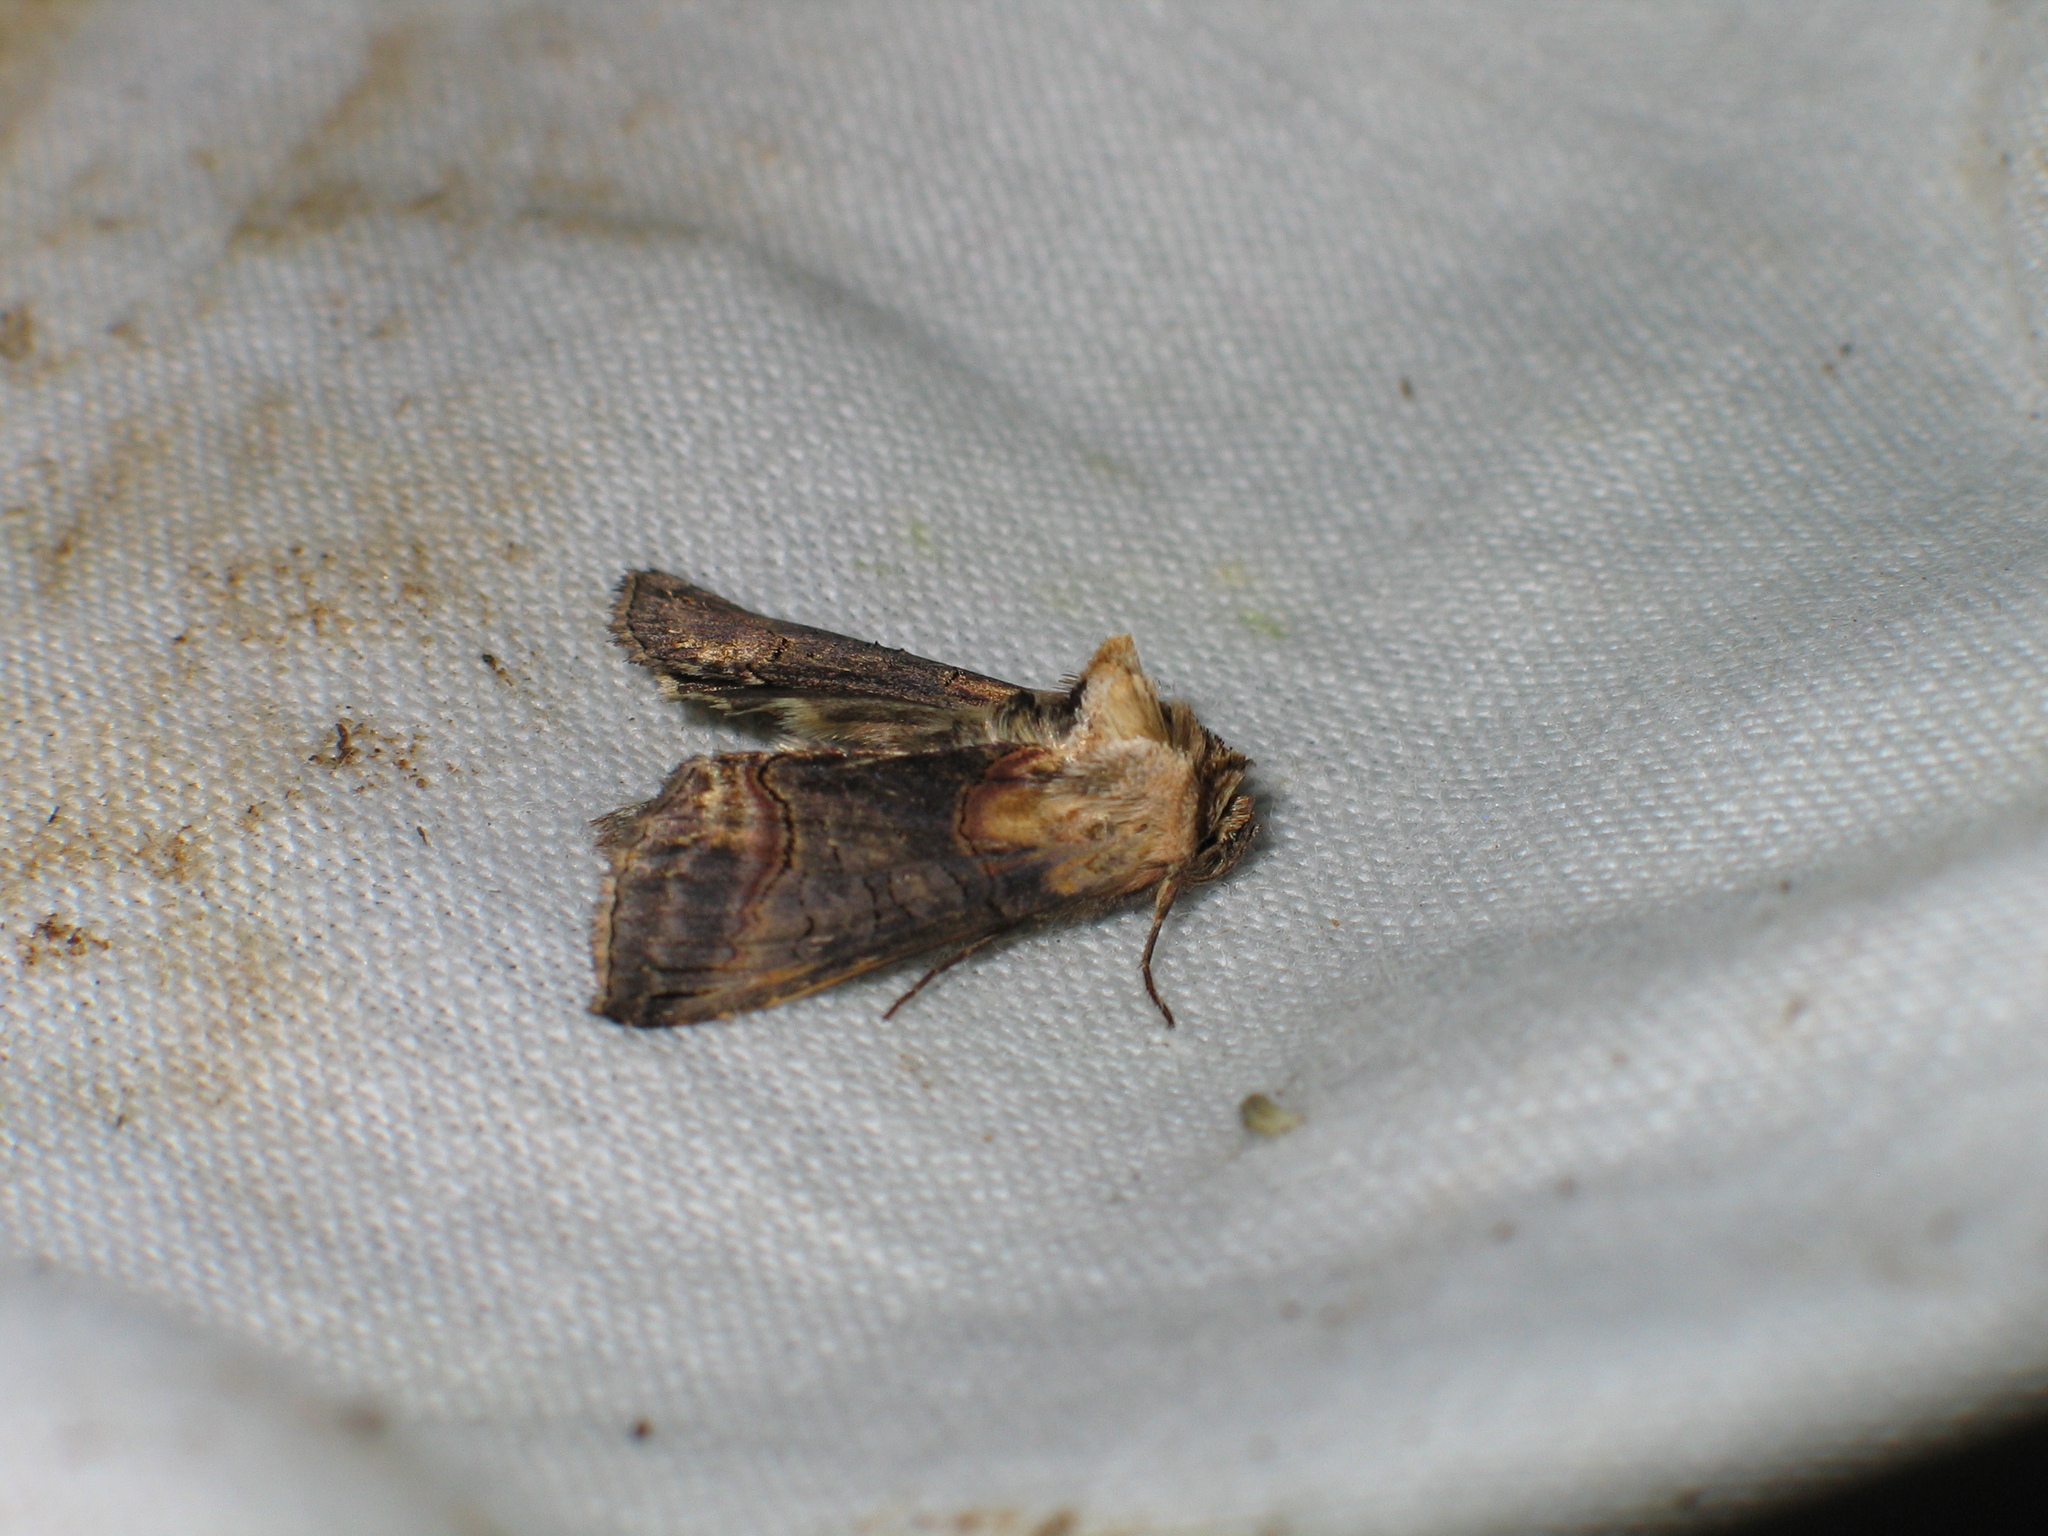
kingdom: Animalia
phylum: Arthropoda
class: Insecta
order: Lepidoptera
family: Noctuidae
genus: Abrostola
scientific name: Abrostola triplasia
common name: Dark spectacle
